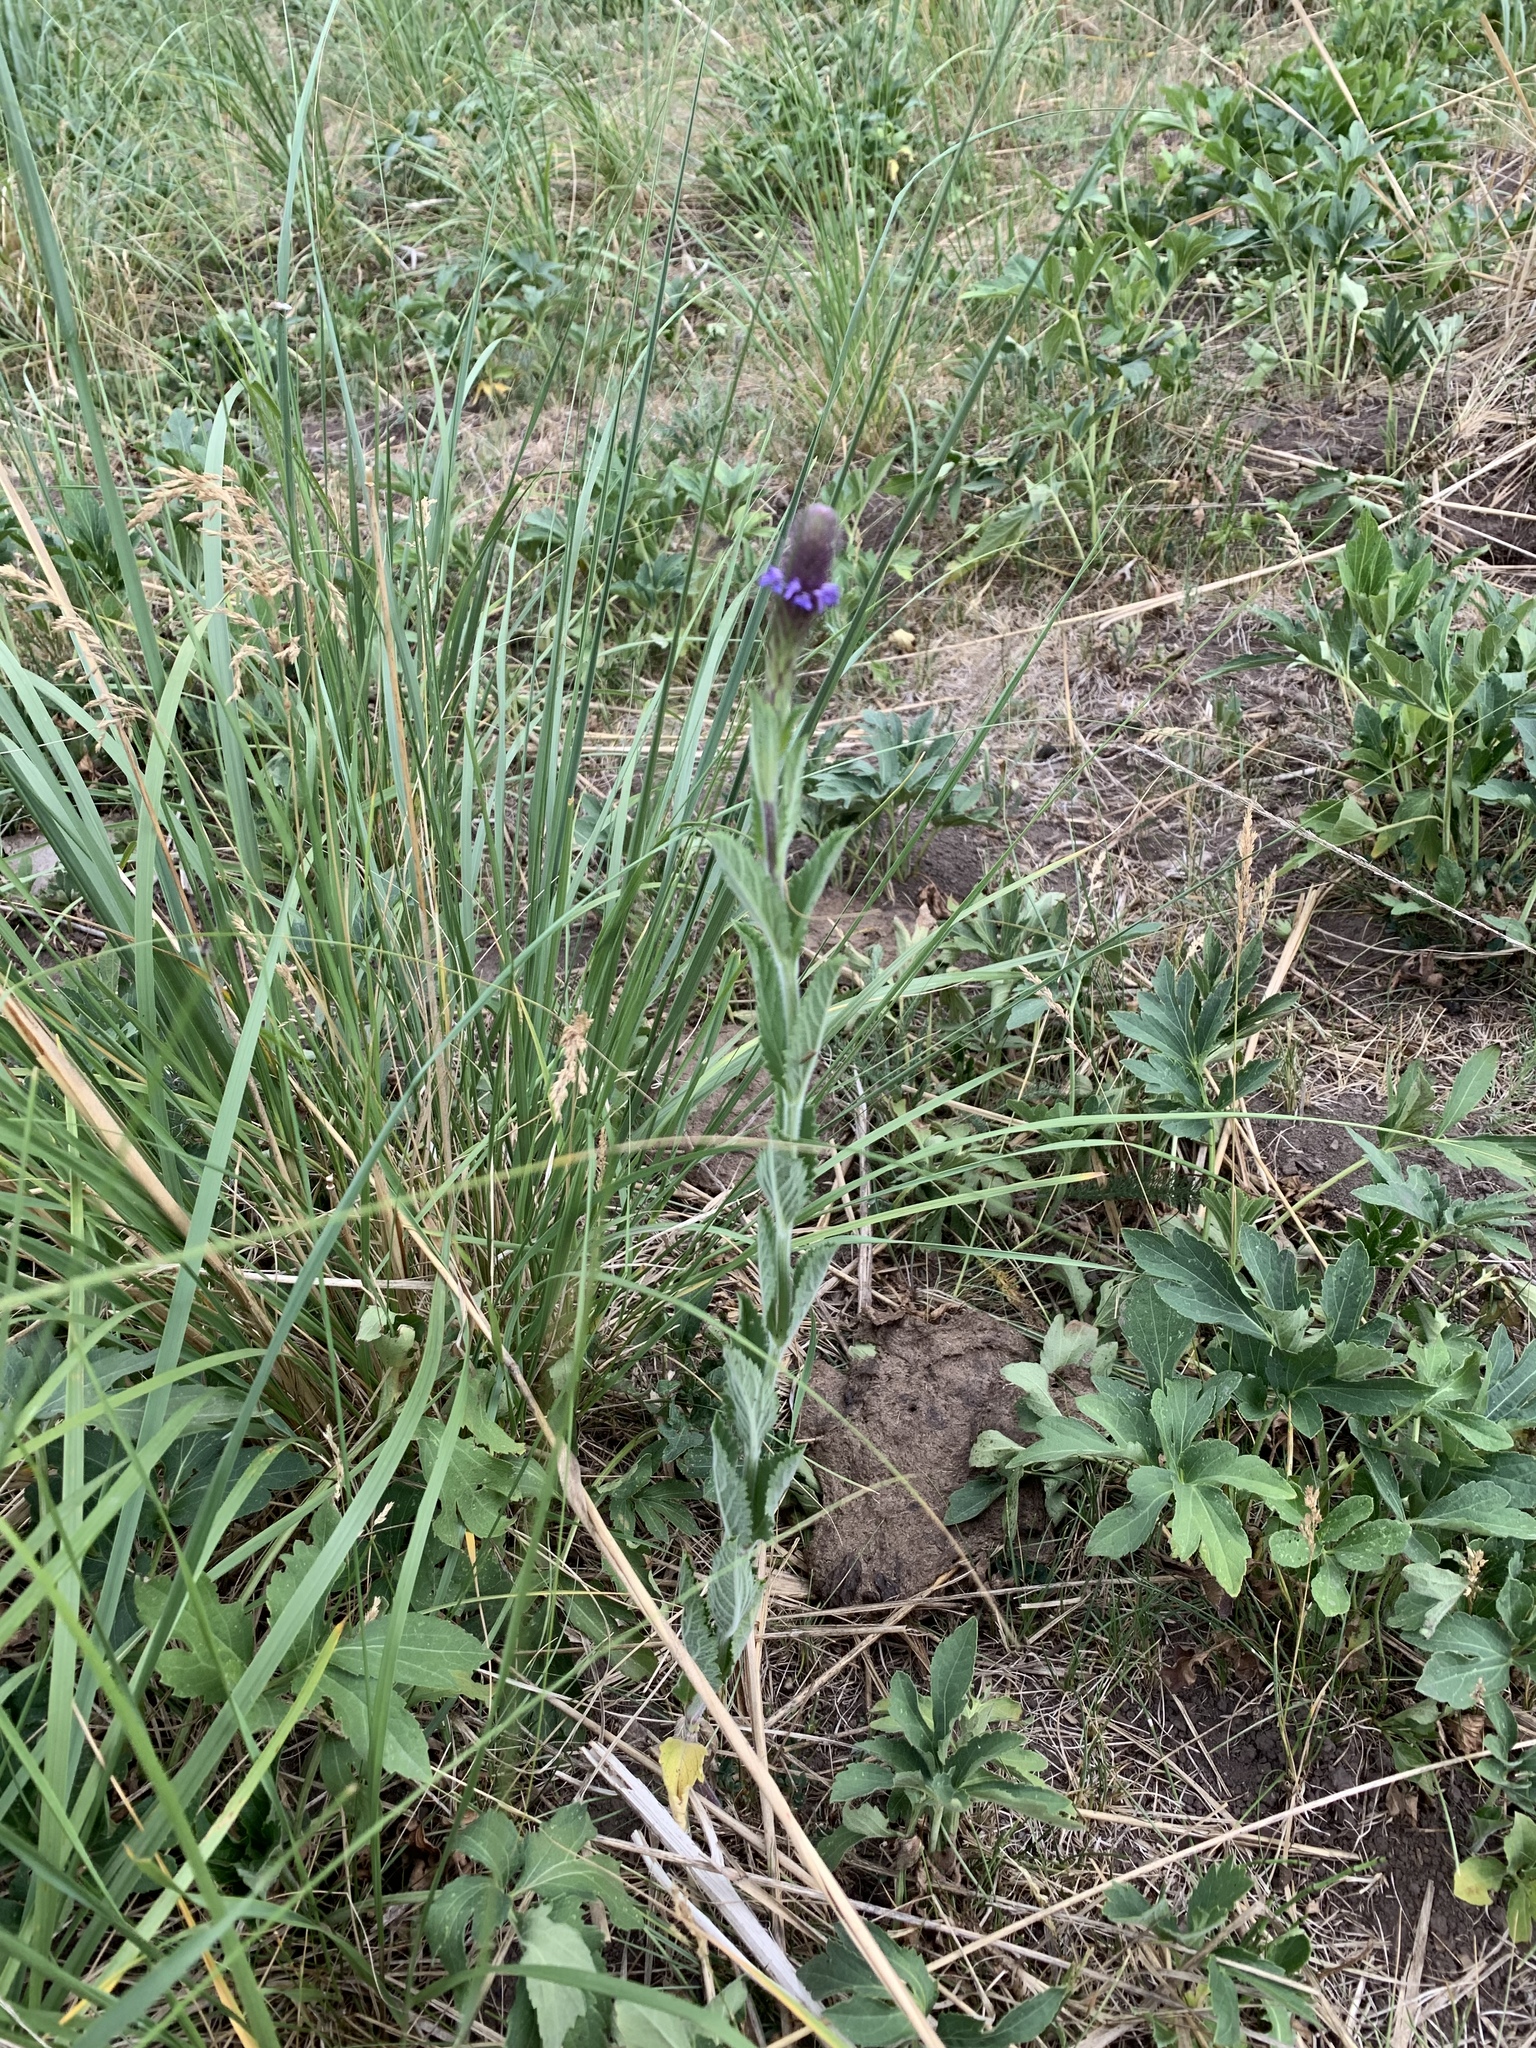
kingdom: Plantae
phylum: Tracheophyta
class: Magnoliopsida
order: Lamiales
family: Verbenaceae
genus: Verbena
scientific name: Verbena macdougalii
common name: New mexico vervain
